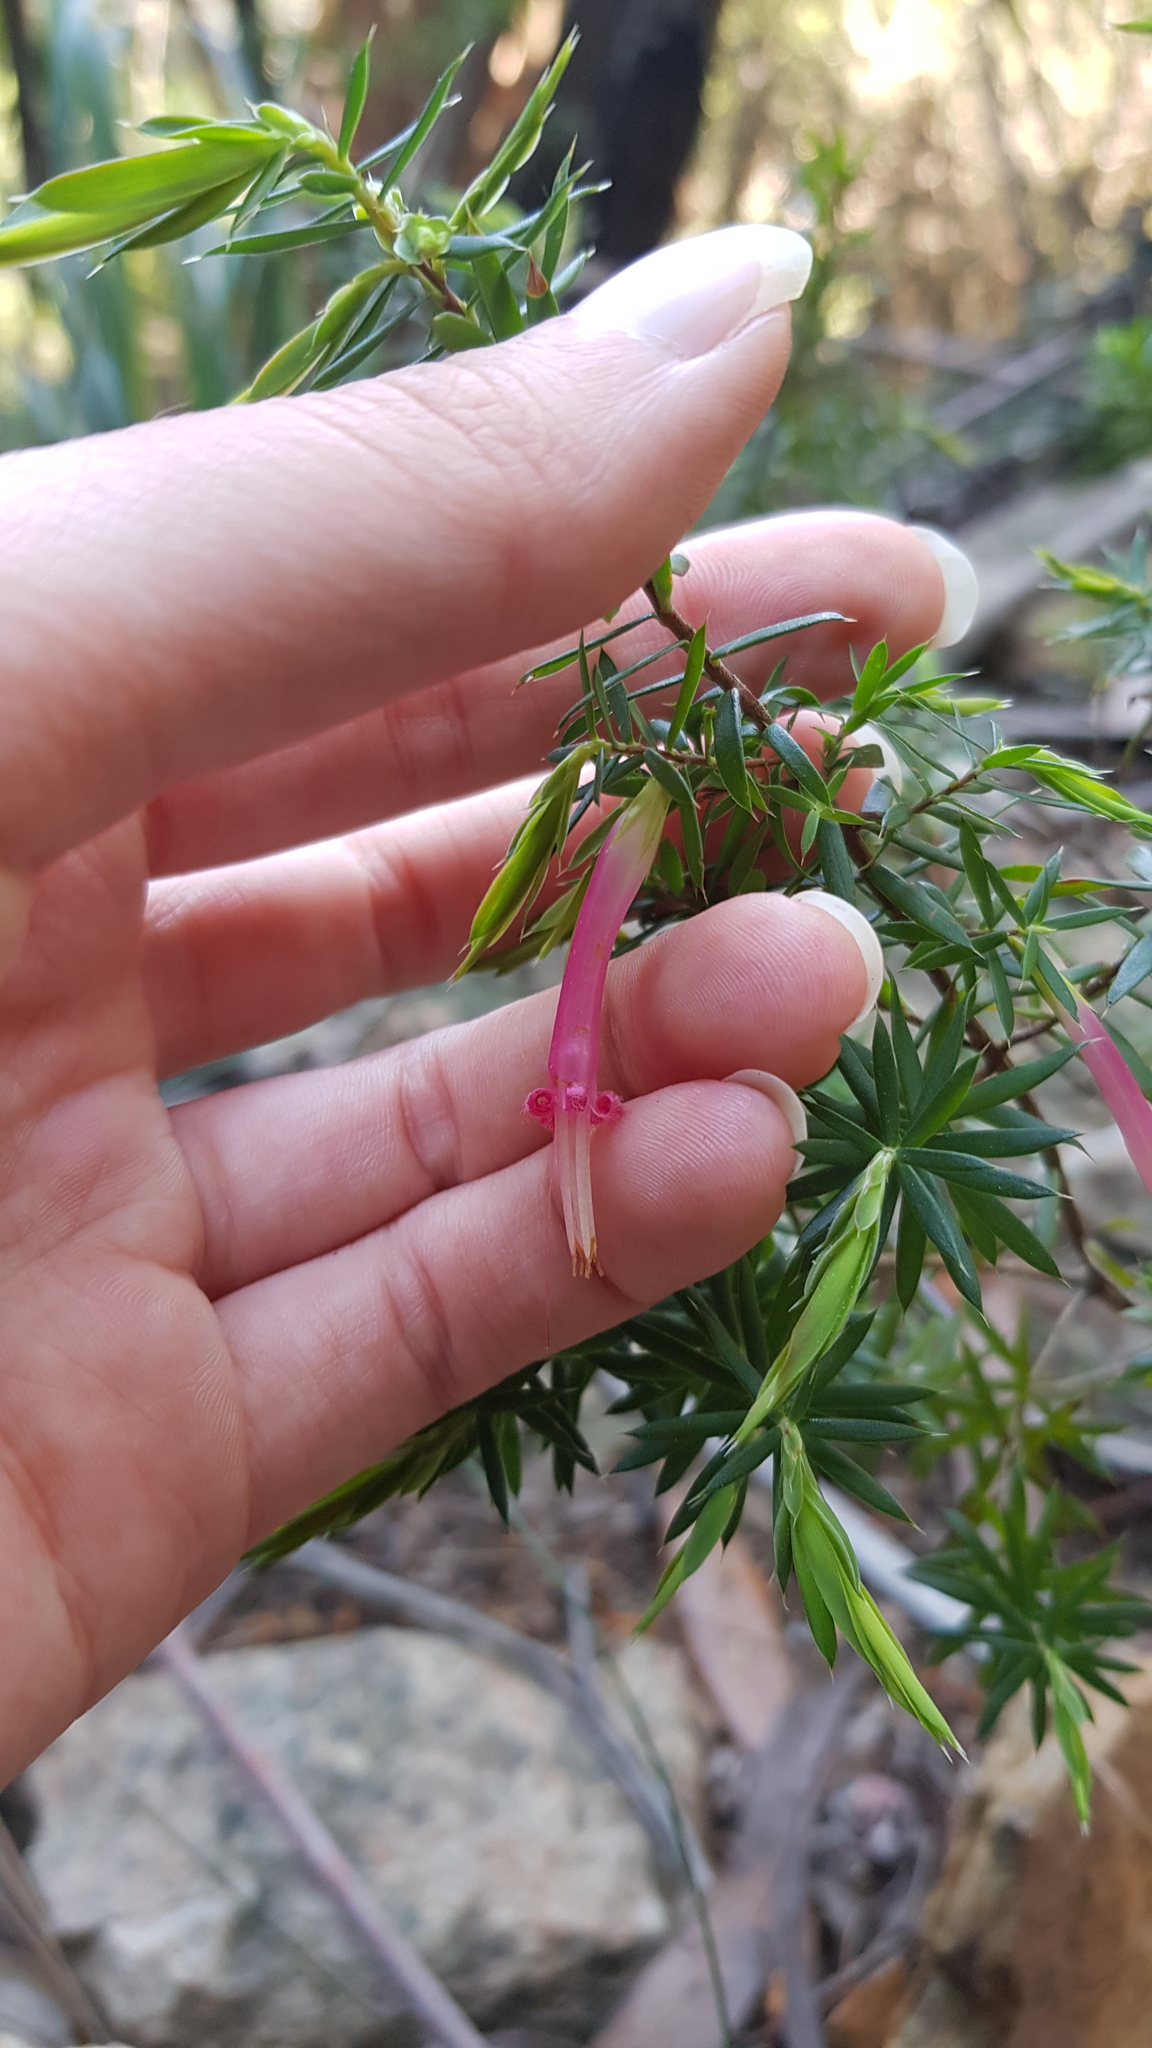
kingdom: Plantae
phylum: Tracheophyta
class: Magnoliopsida
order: Ericales
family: Ericaceae
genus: Styphelia
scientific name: Styphelia tubiflora
